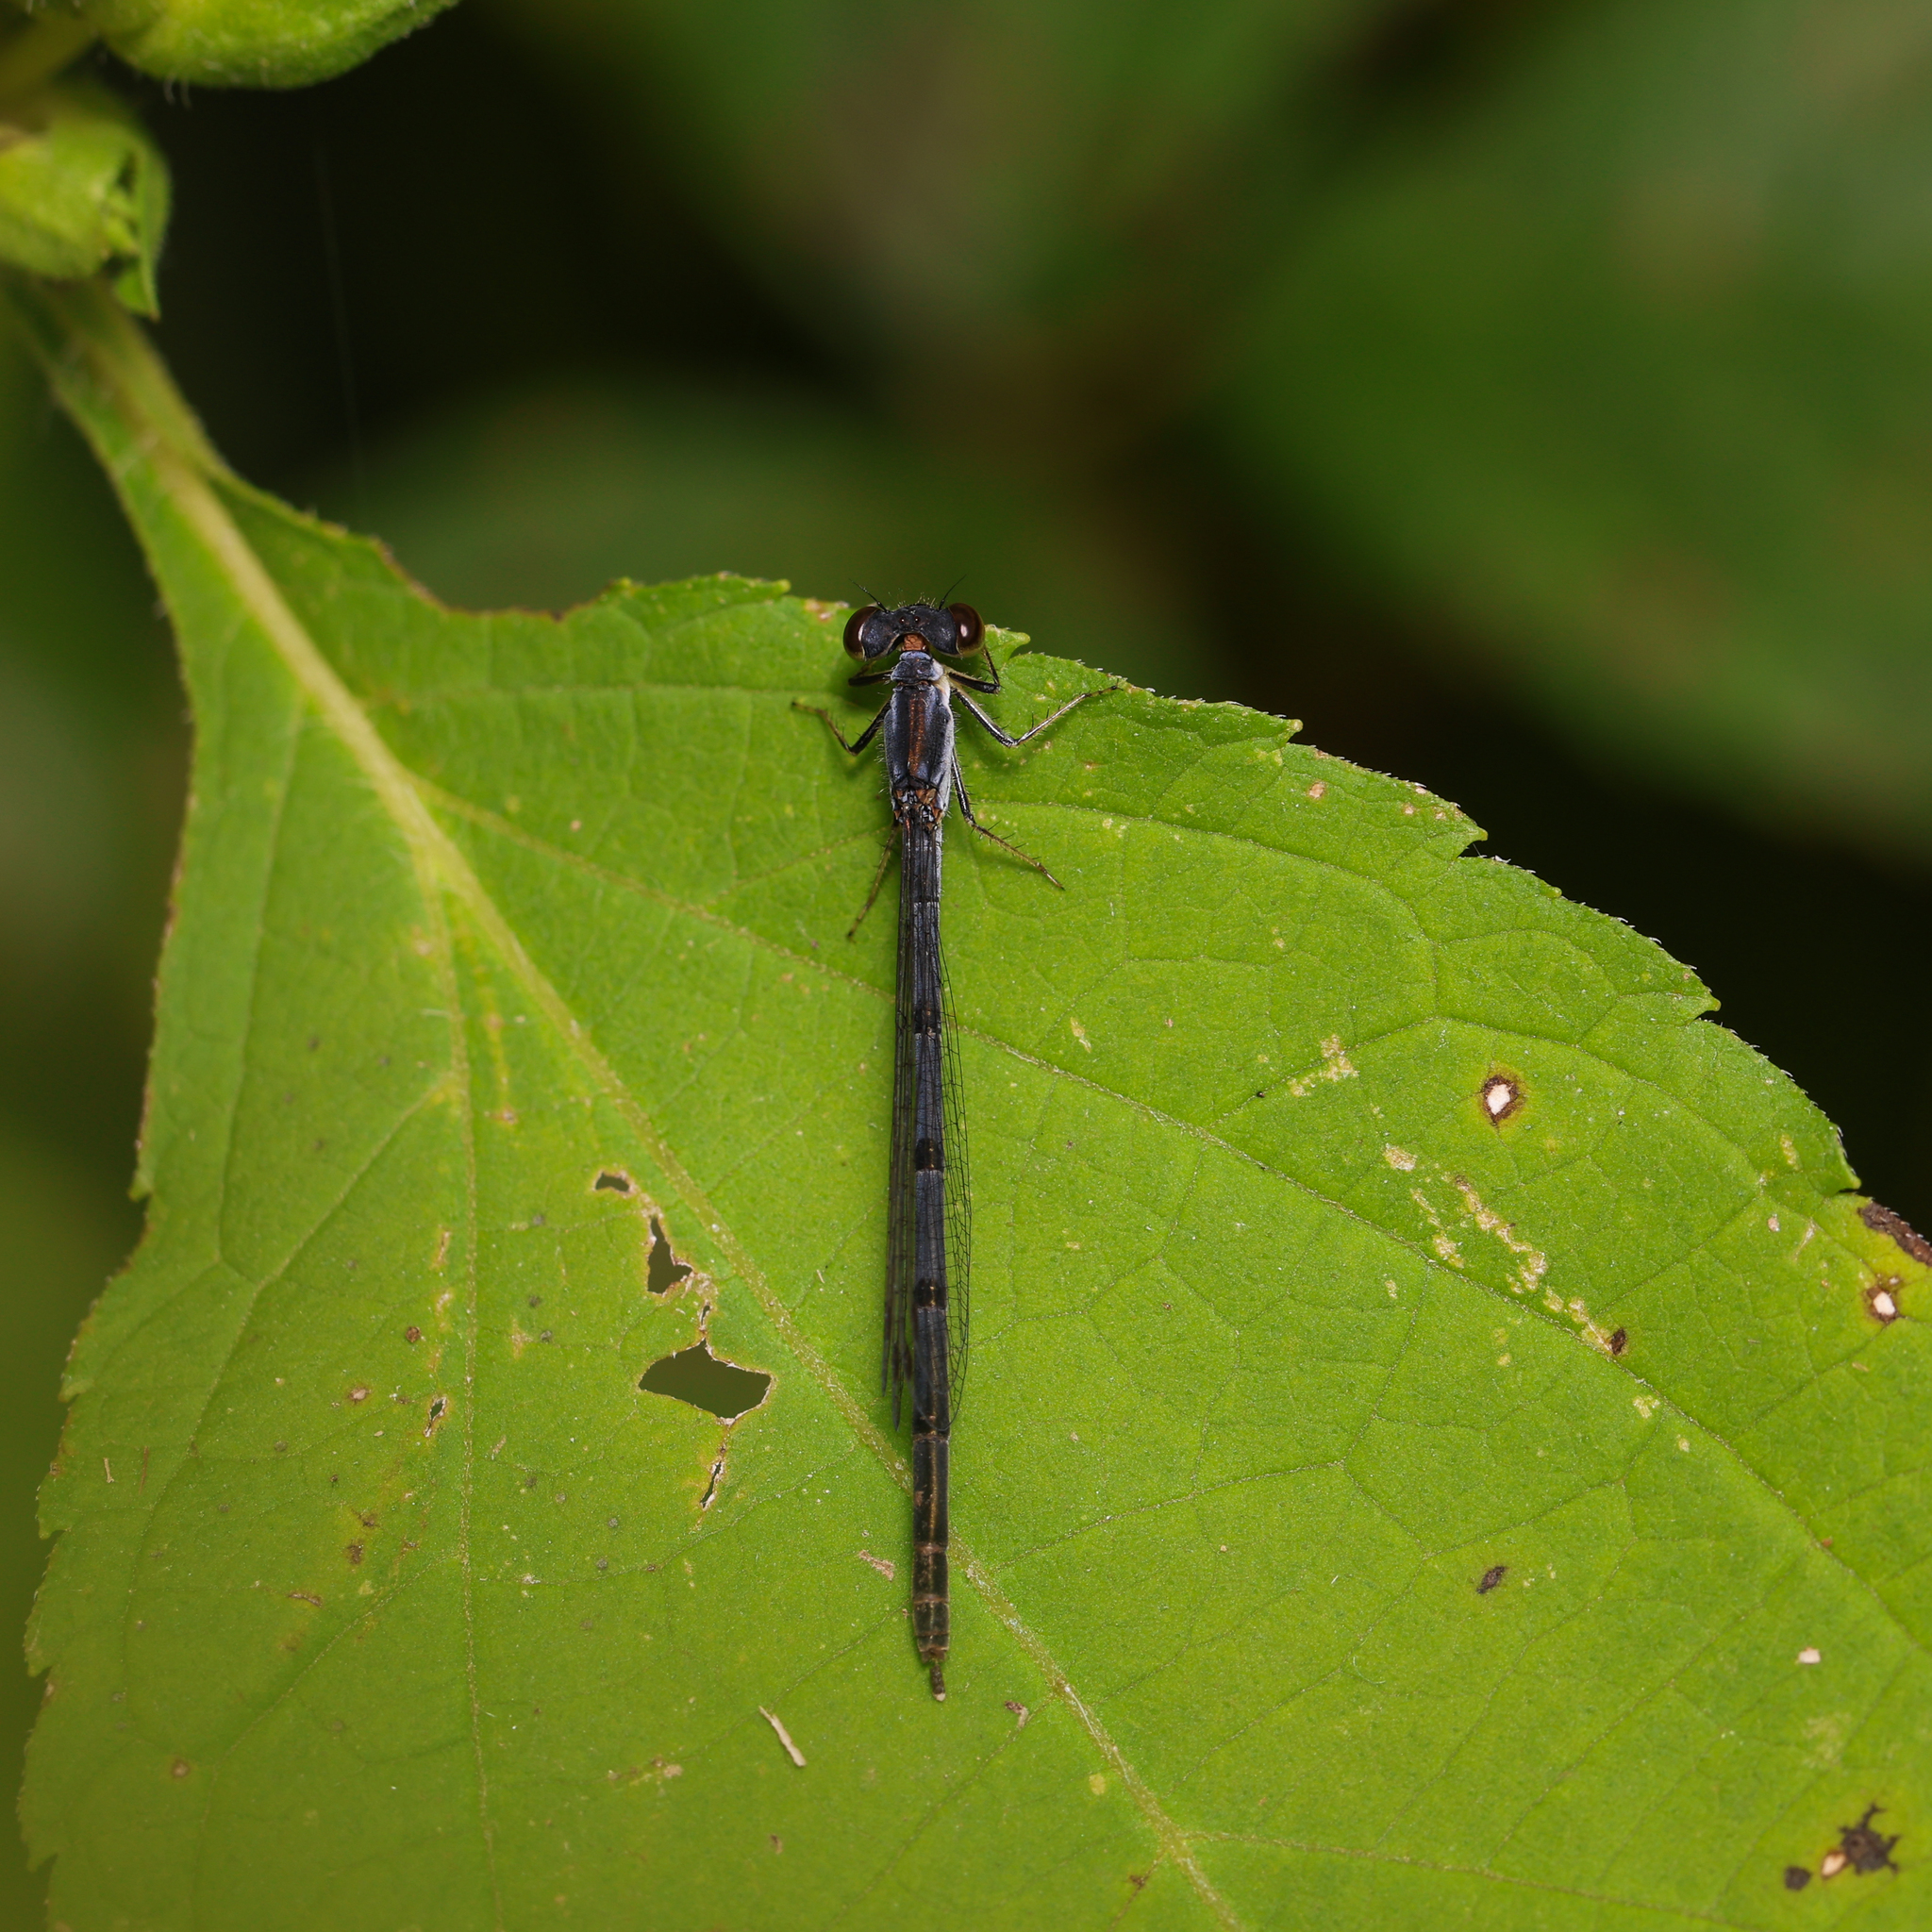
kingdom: Animalia
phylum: Arthropoda
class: Insecta
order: Odonata
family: Coenagrionidae
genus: Ischnura
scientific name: Ischnura posita
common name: Fragile forktail
